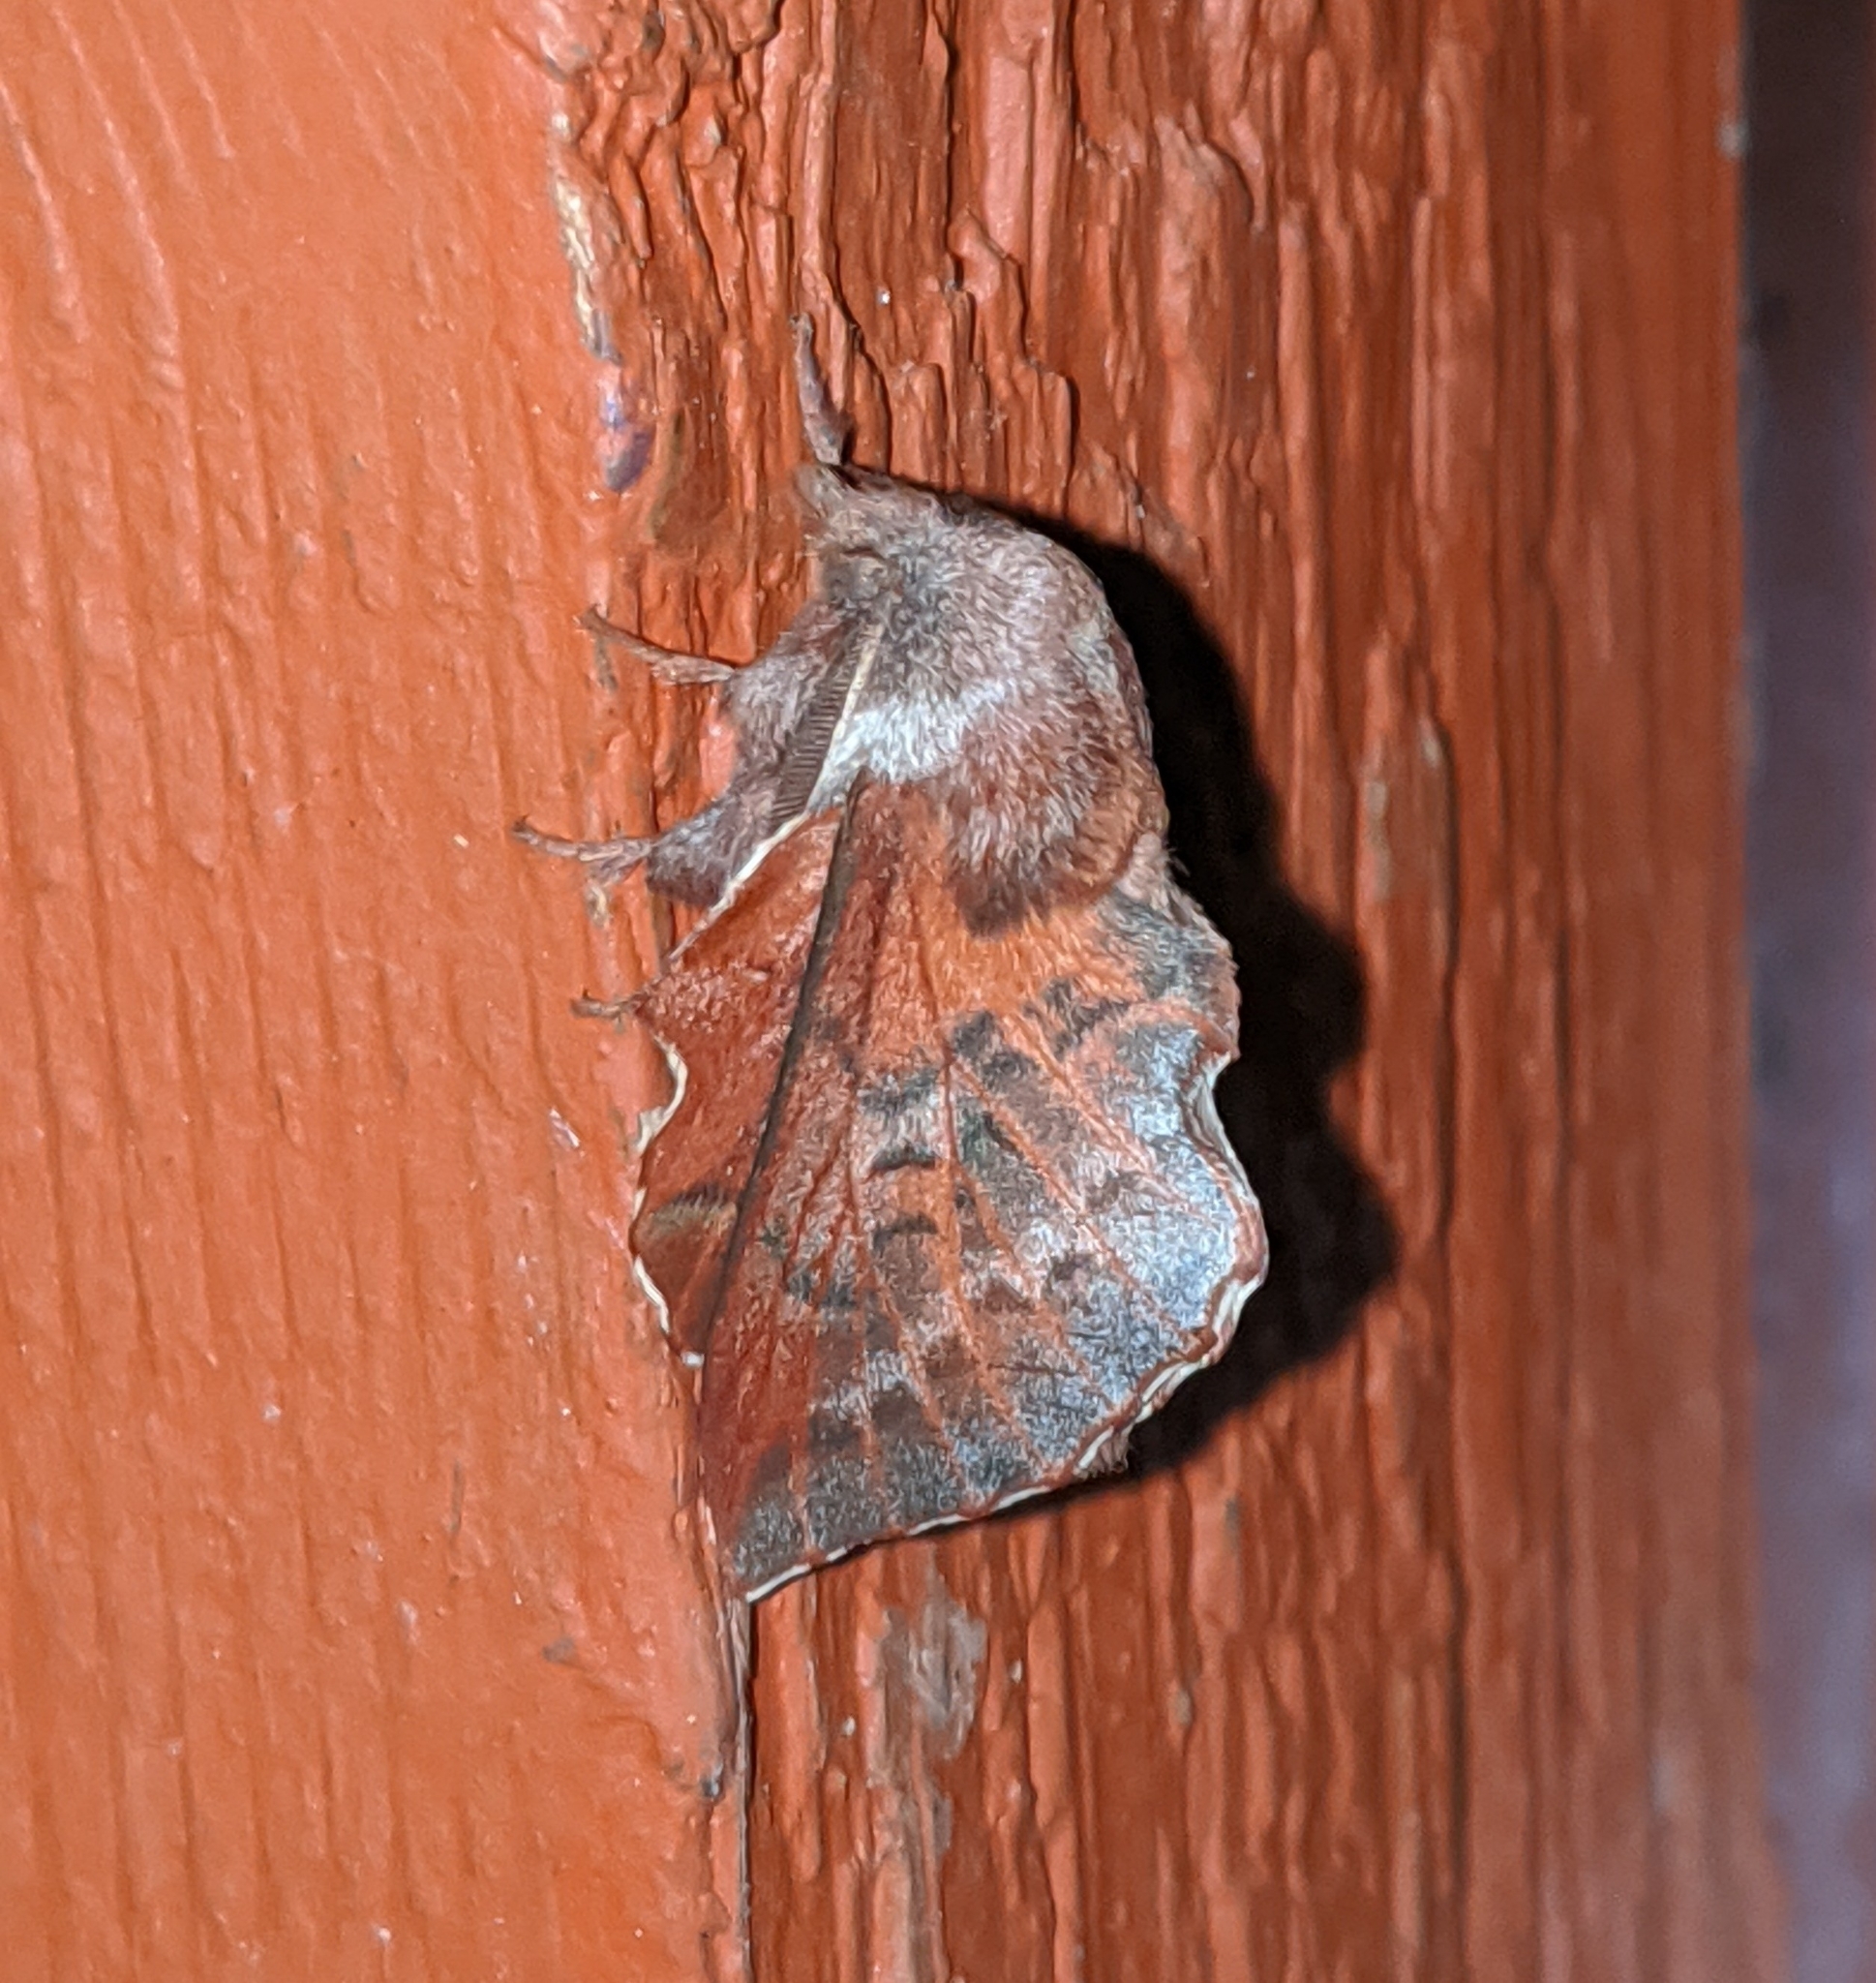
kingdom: Animalia
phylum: Arthropoda
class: Insecta
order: Lepidoptera
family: Lasiocampidae
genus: Phyllodesma
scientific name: Phyllodesma americana
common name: American lappet moth
